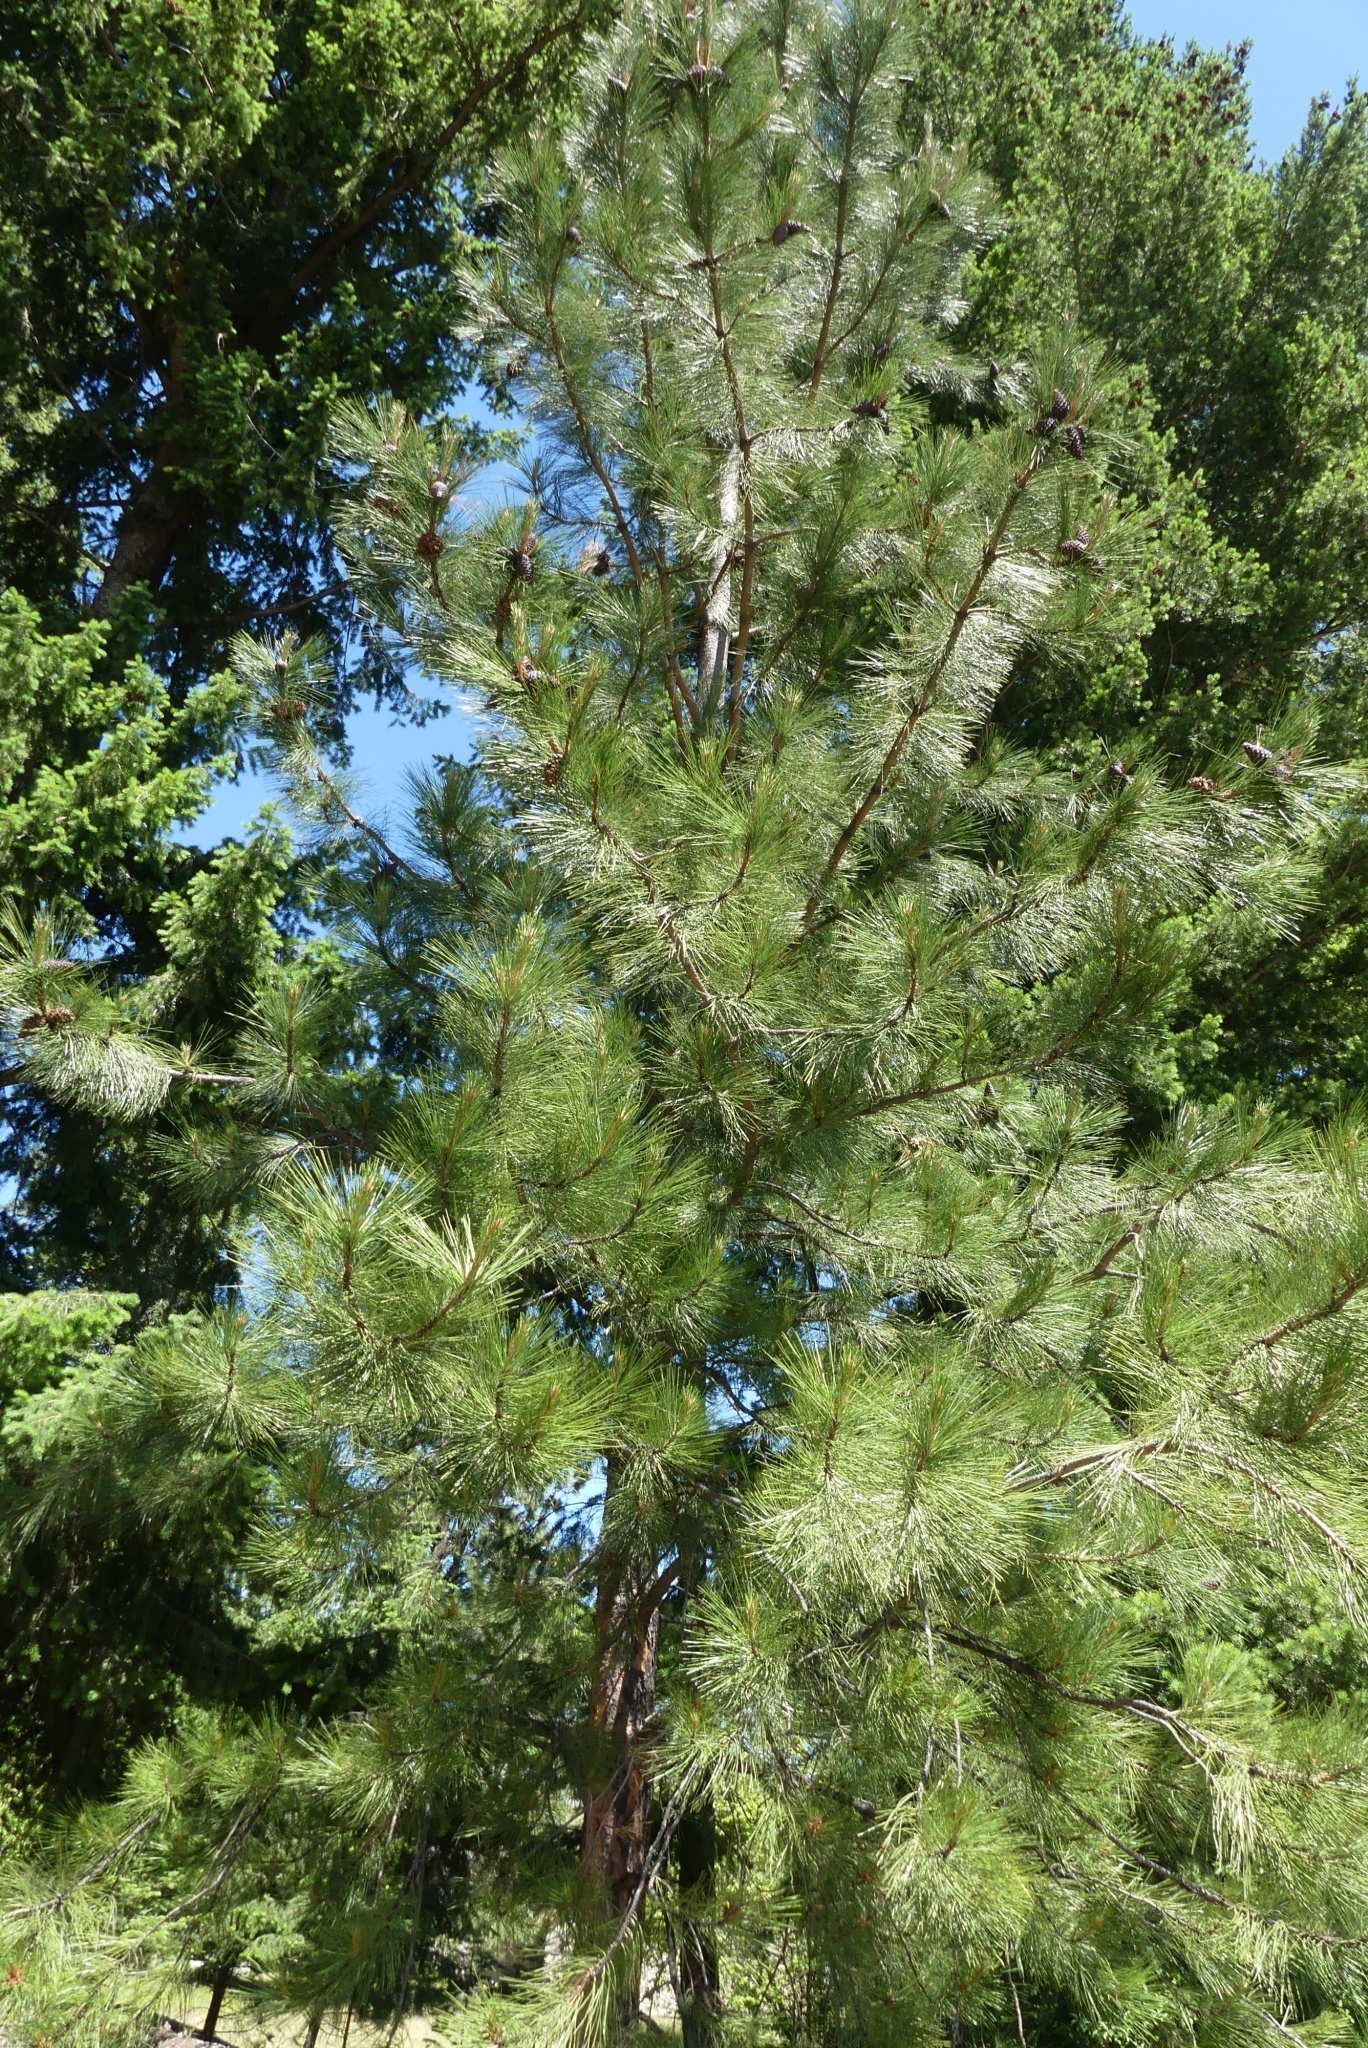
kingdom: Plantae
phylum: Tracheophyta
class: Pinopsida
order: Pinales
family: Pinaceae
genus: Pinus
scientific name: Pinus ponderosa
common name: Western yellow-pine
